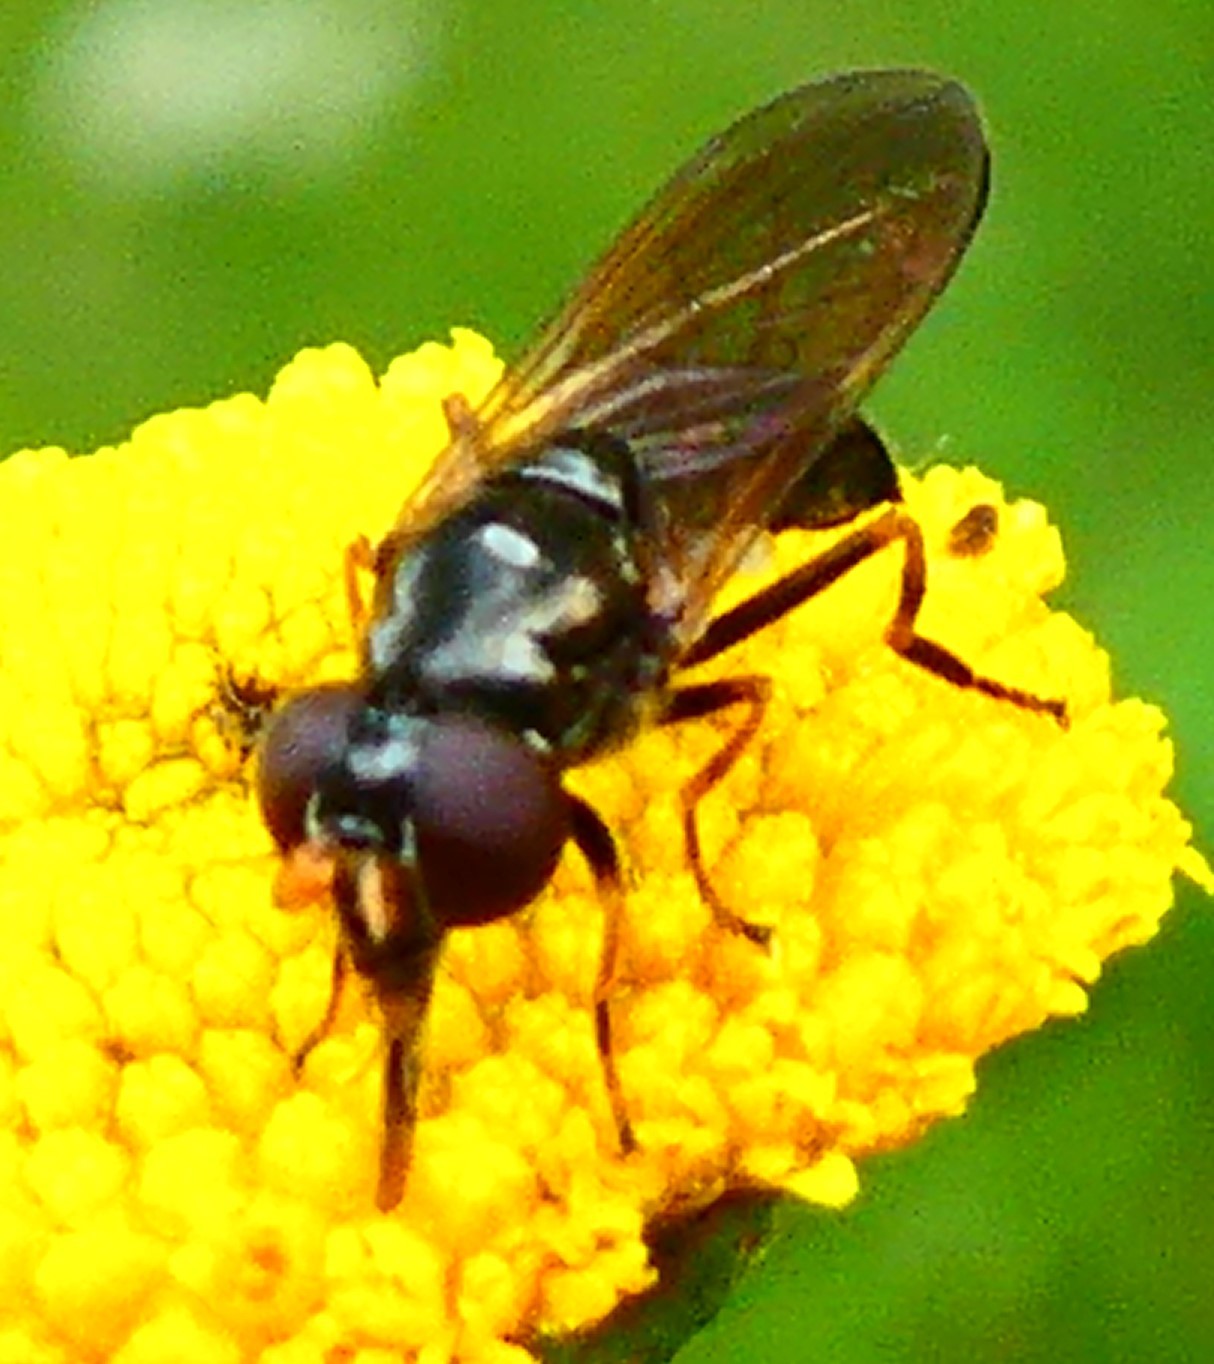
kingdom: Animalia
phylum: Arthropoda
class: Insecta
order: Diptera
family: Syrphidae
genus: Cheilosia
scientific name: Cheilosia pagana
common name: Hover fly
